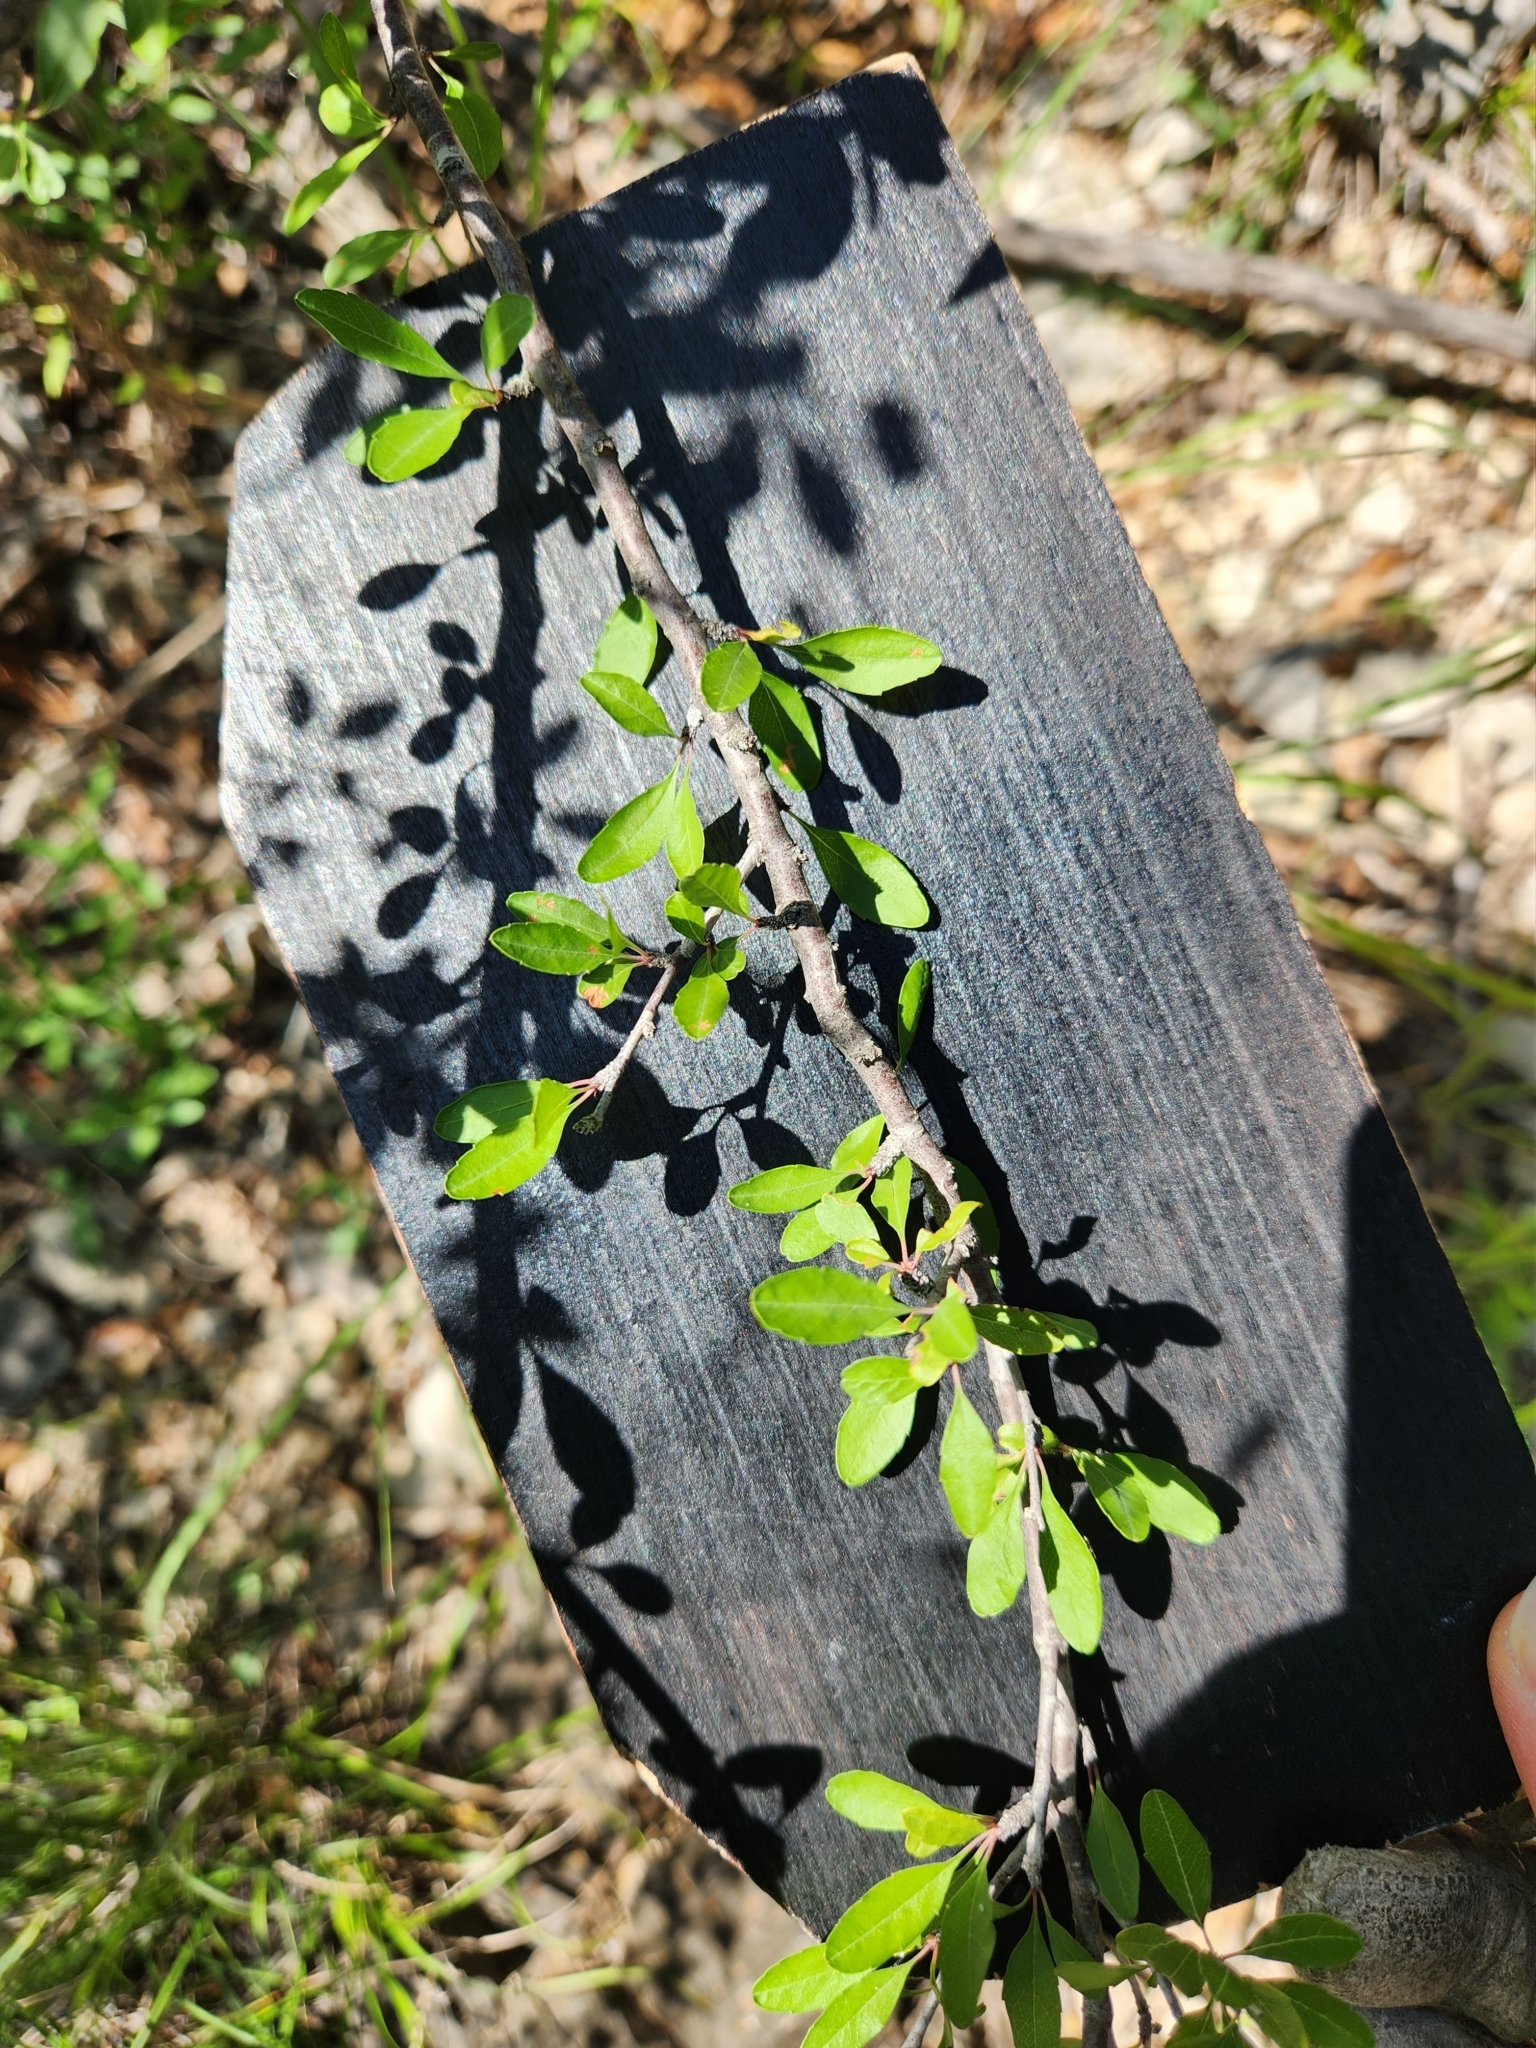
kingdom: Plantae
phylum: Tracheophyta
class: Magnoliopsida
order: Rosales
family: Rosaceae
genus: Prunus
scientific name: Prunus minutiflora
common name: Texas almond
